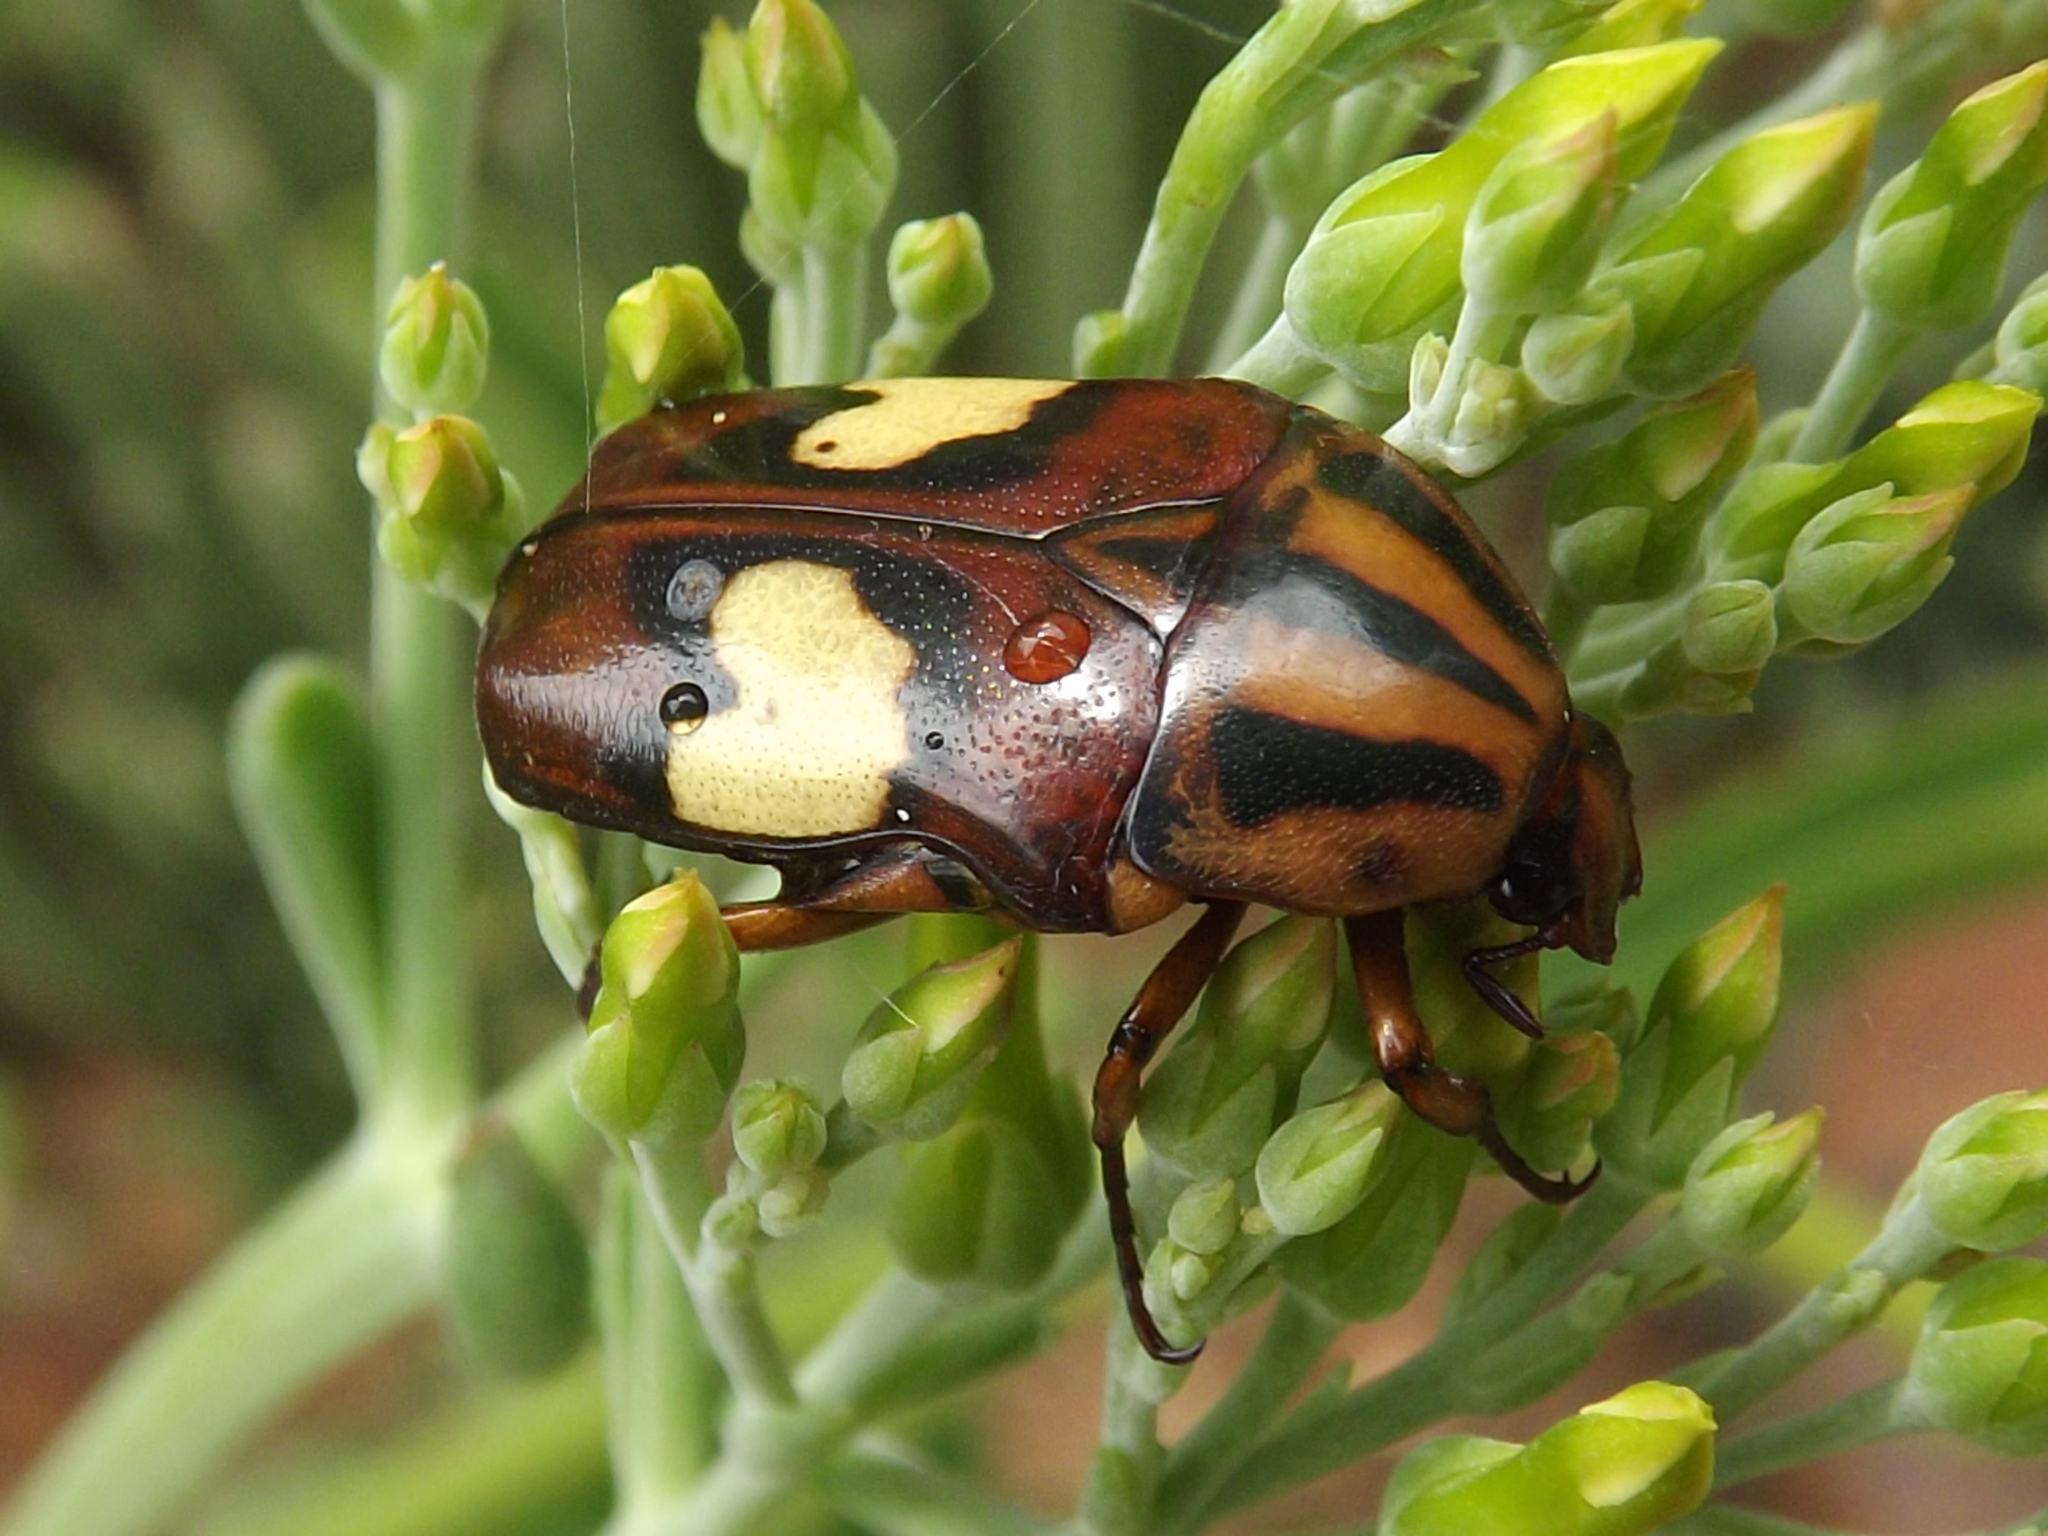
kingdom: Animalia
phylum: Arthropoda
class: Insecta
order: Coleoptera
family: Scarabaeidae
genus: Pedinorrhina
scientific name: Pedinorrhina
